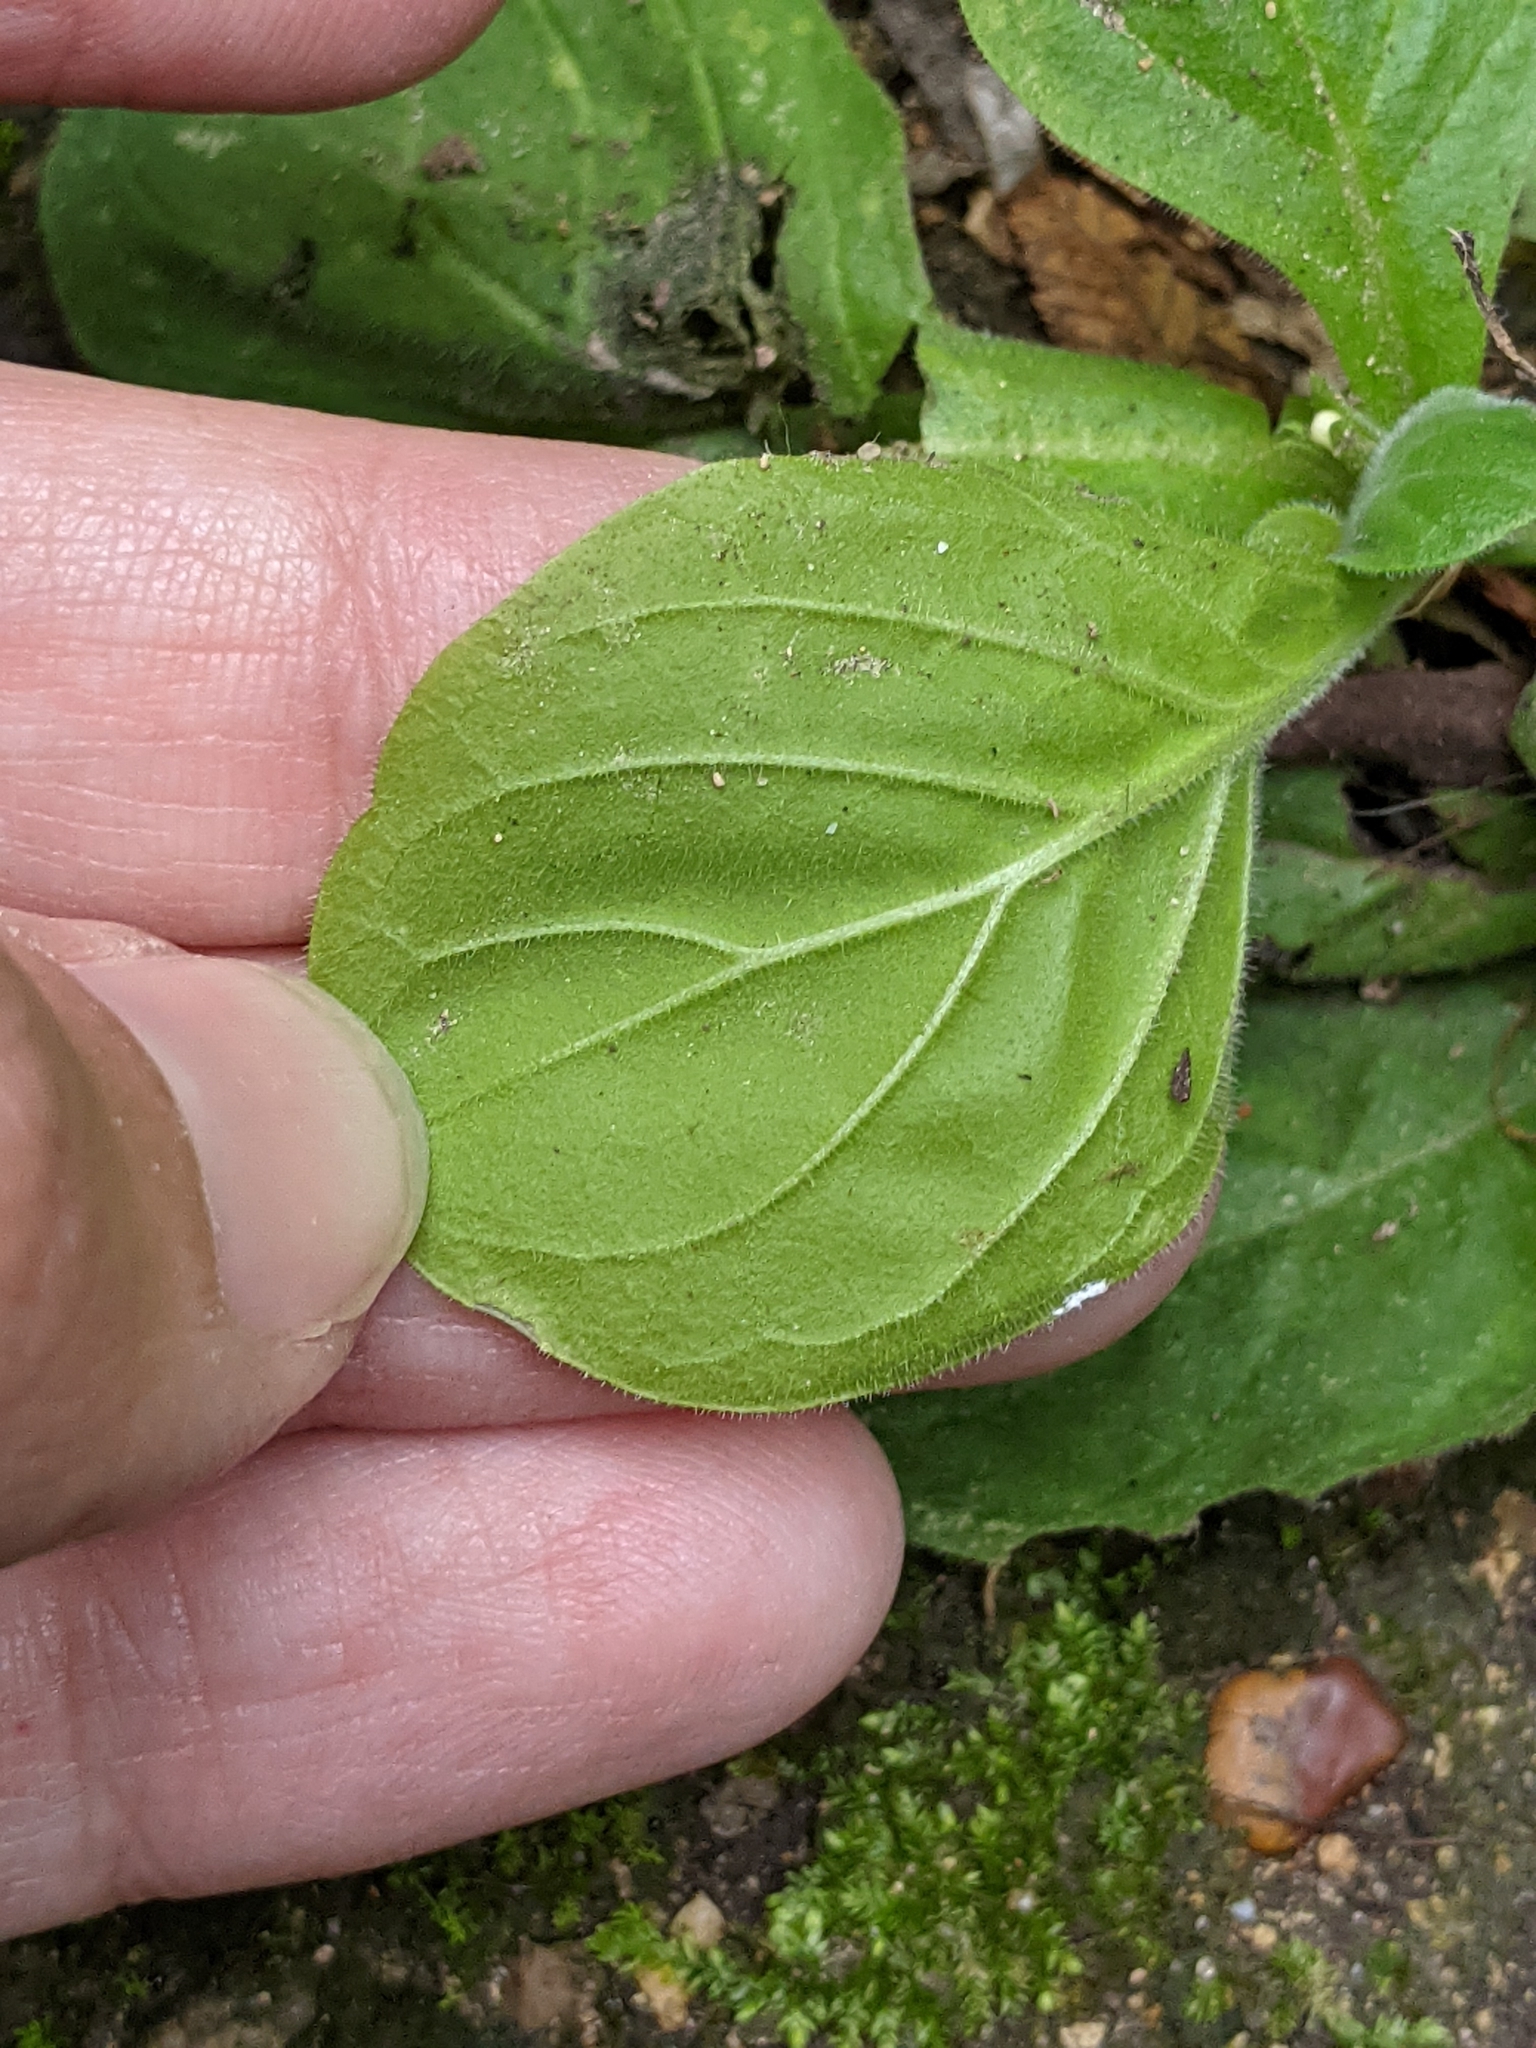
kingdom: Plantae
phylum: Tracheophyta
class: Magnoliopsida
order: Boraginales
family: Namaceae
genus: Nama
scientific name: Nama jamaicensis
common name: Jamaicanweed
